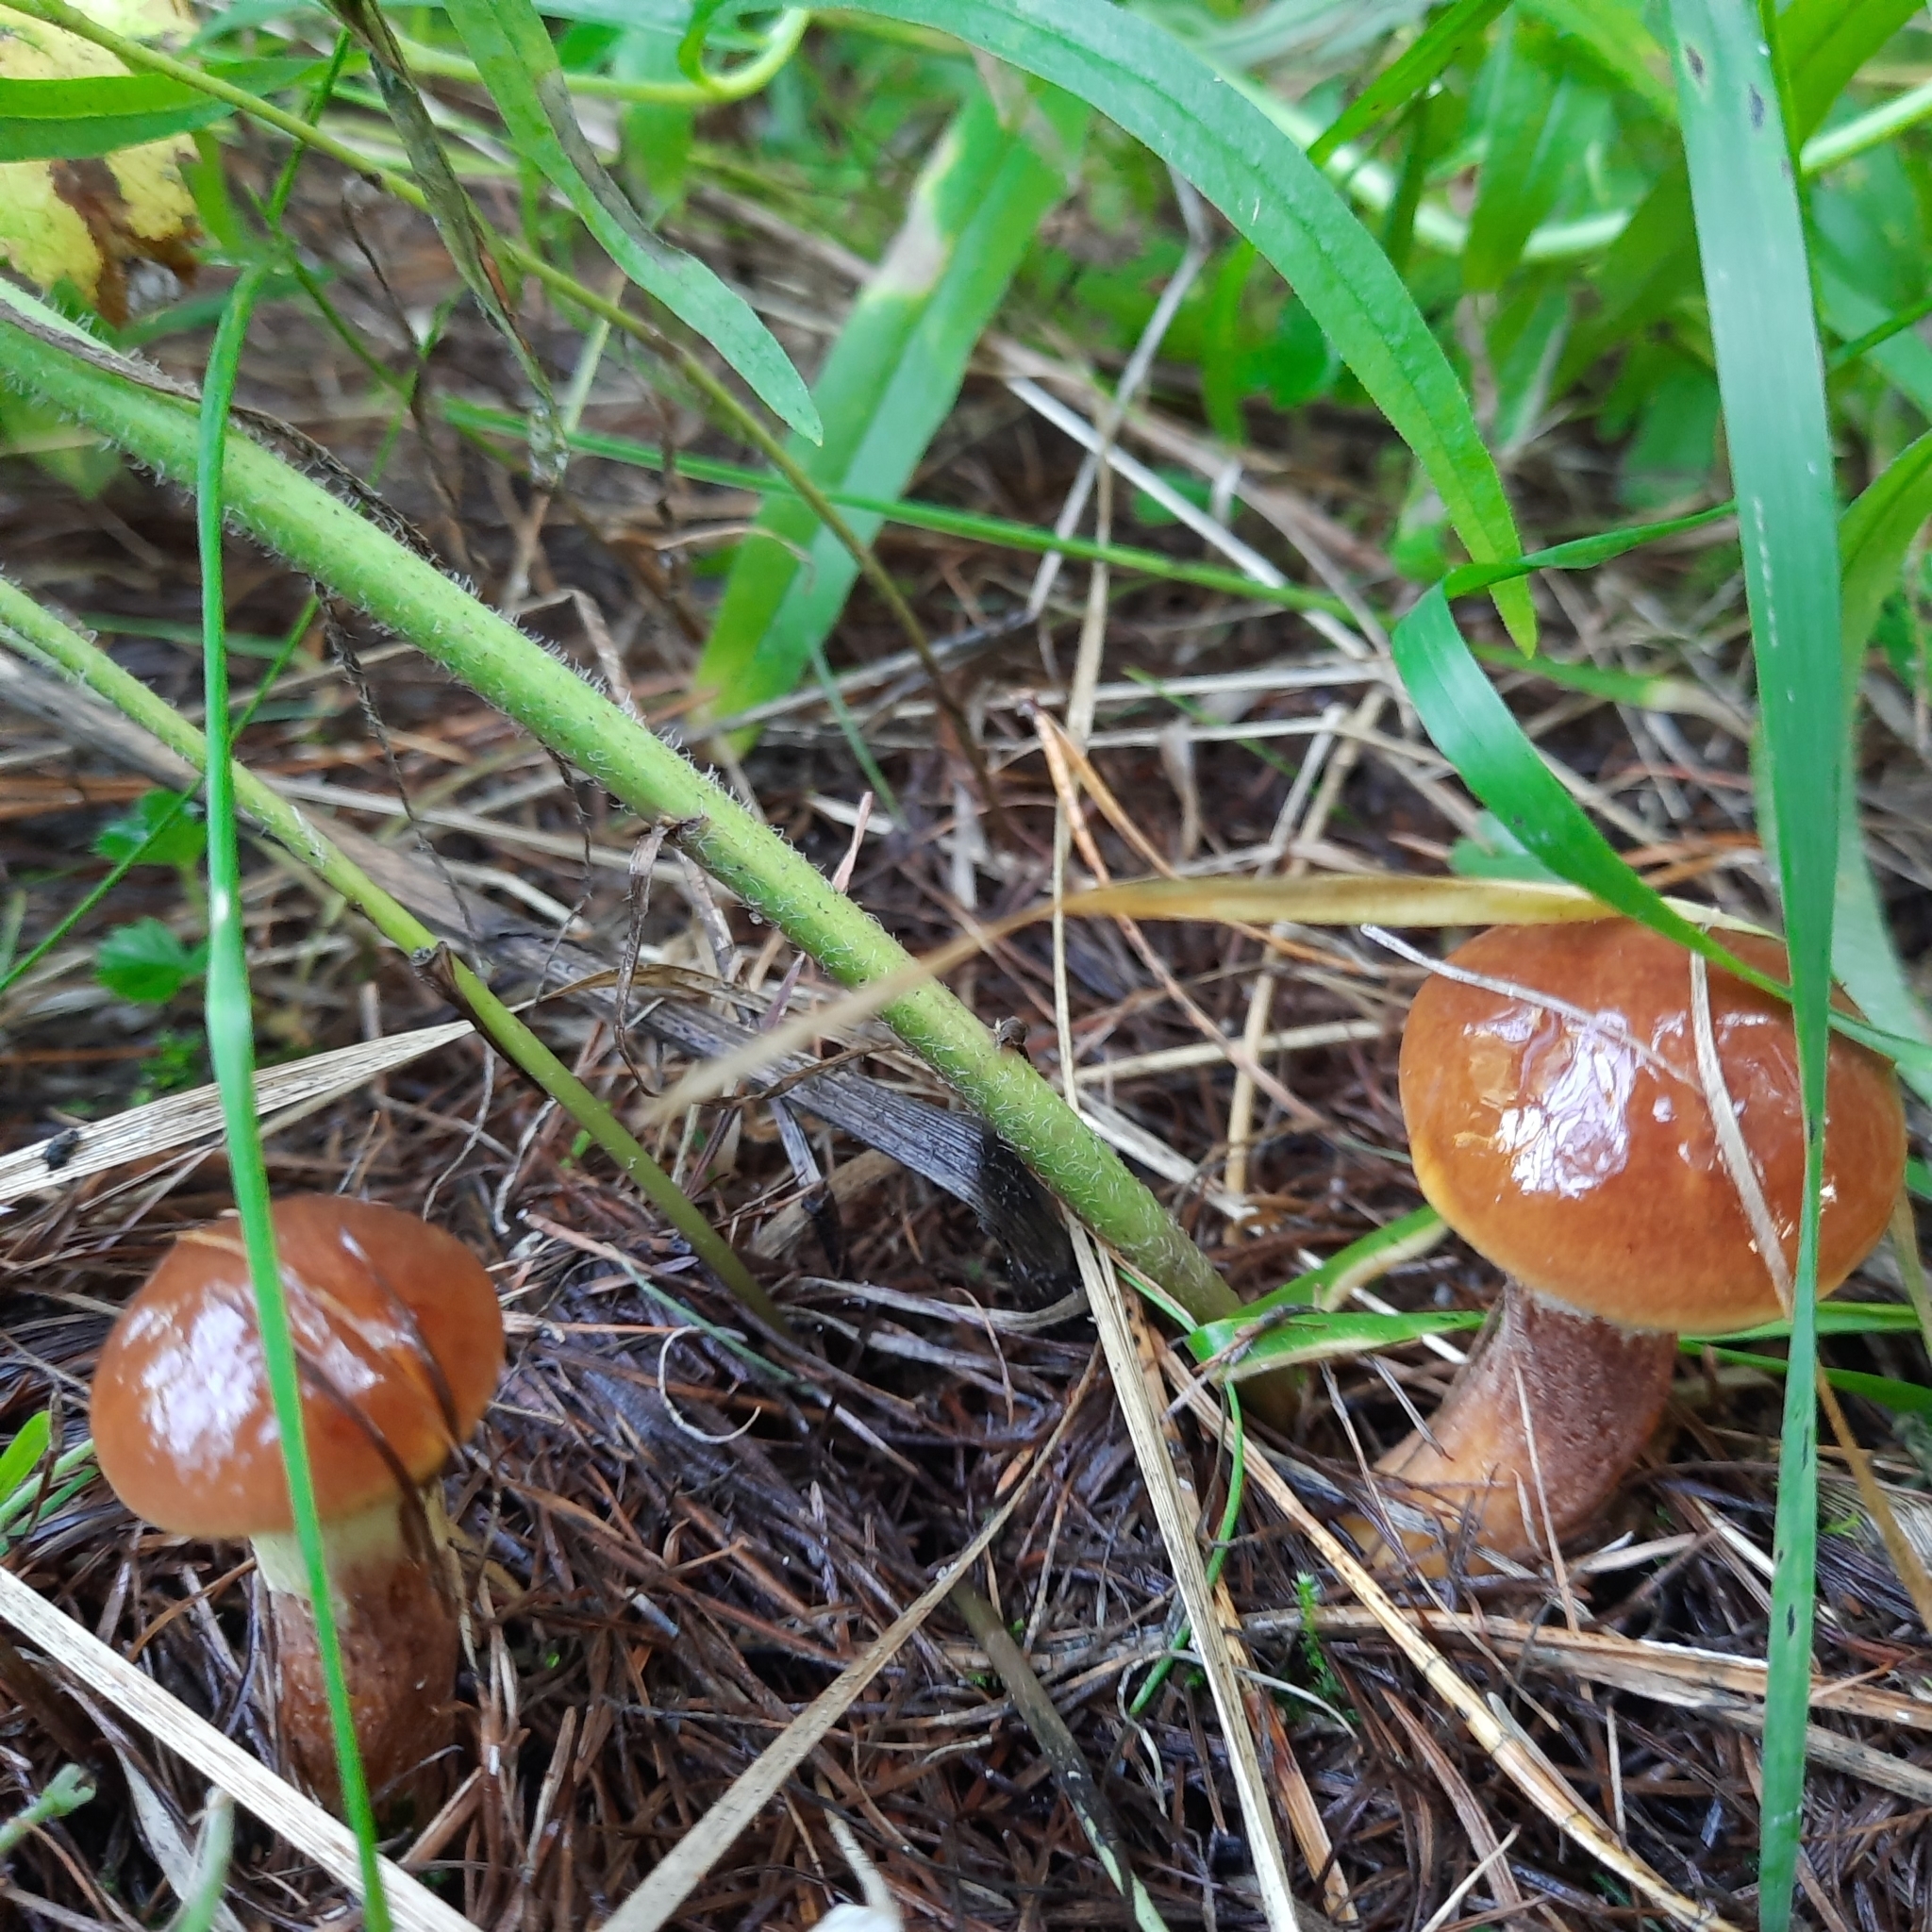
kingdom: Fungi
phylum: Basidiomycota
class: Agaricomycetes
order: Boletales
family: Suillaceae
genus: Suillus
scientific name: Suillus grevillei
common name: Larch bolete
